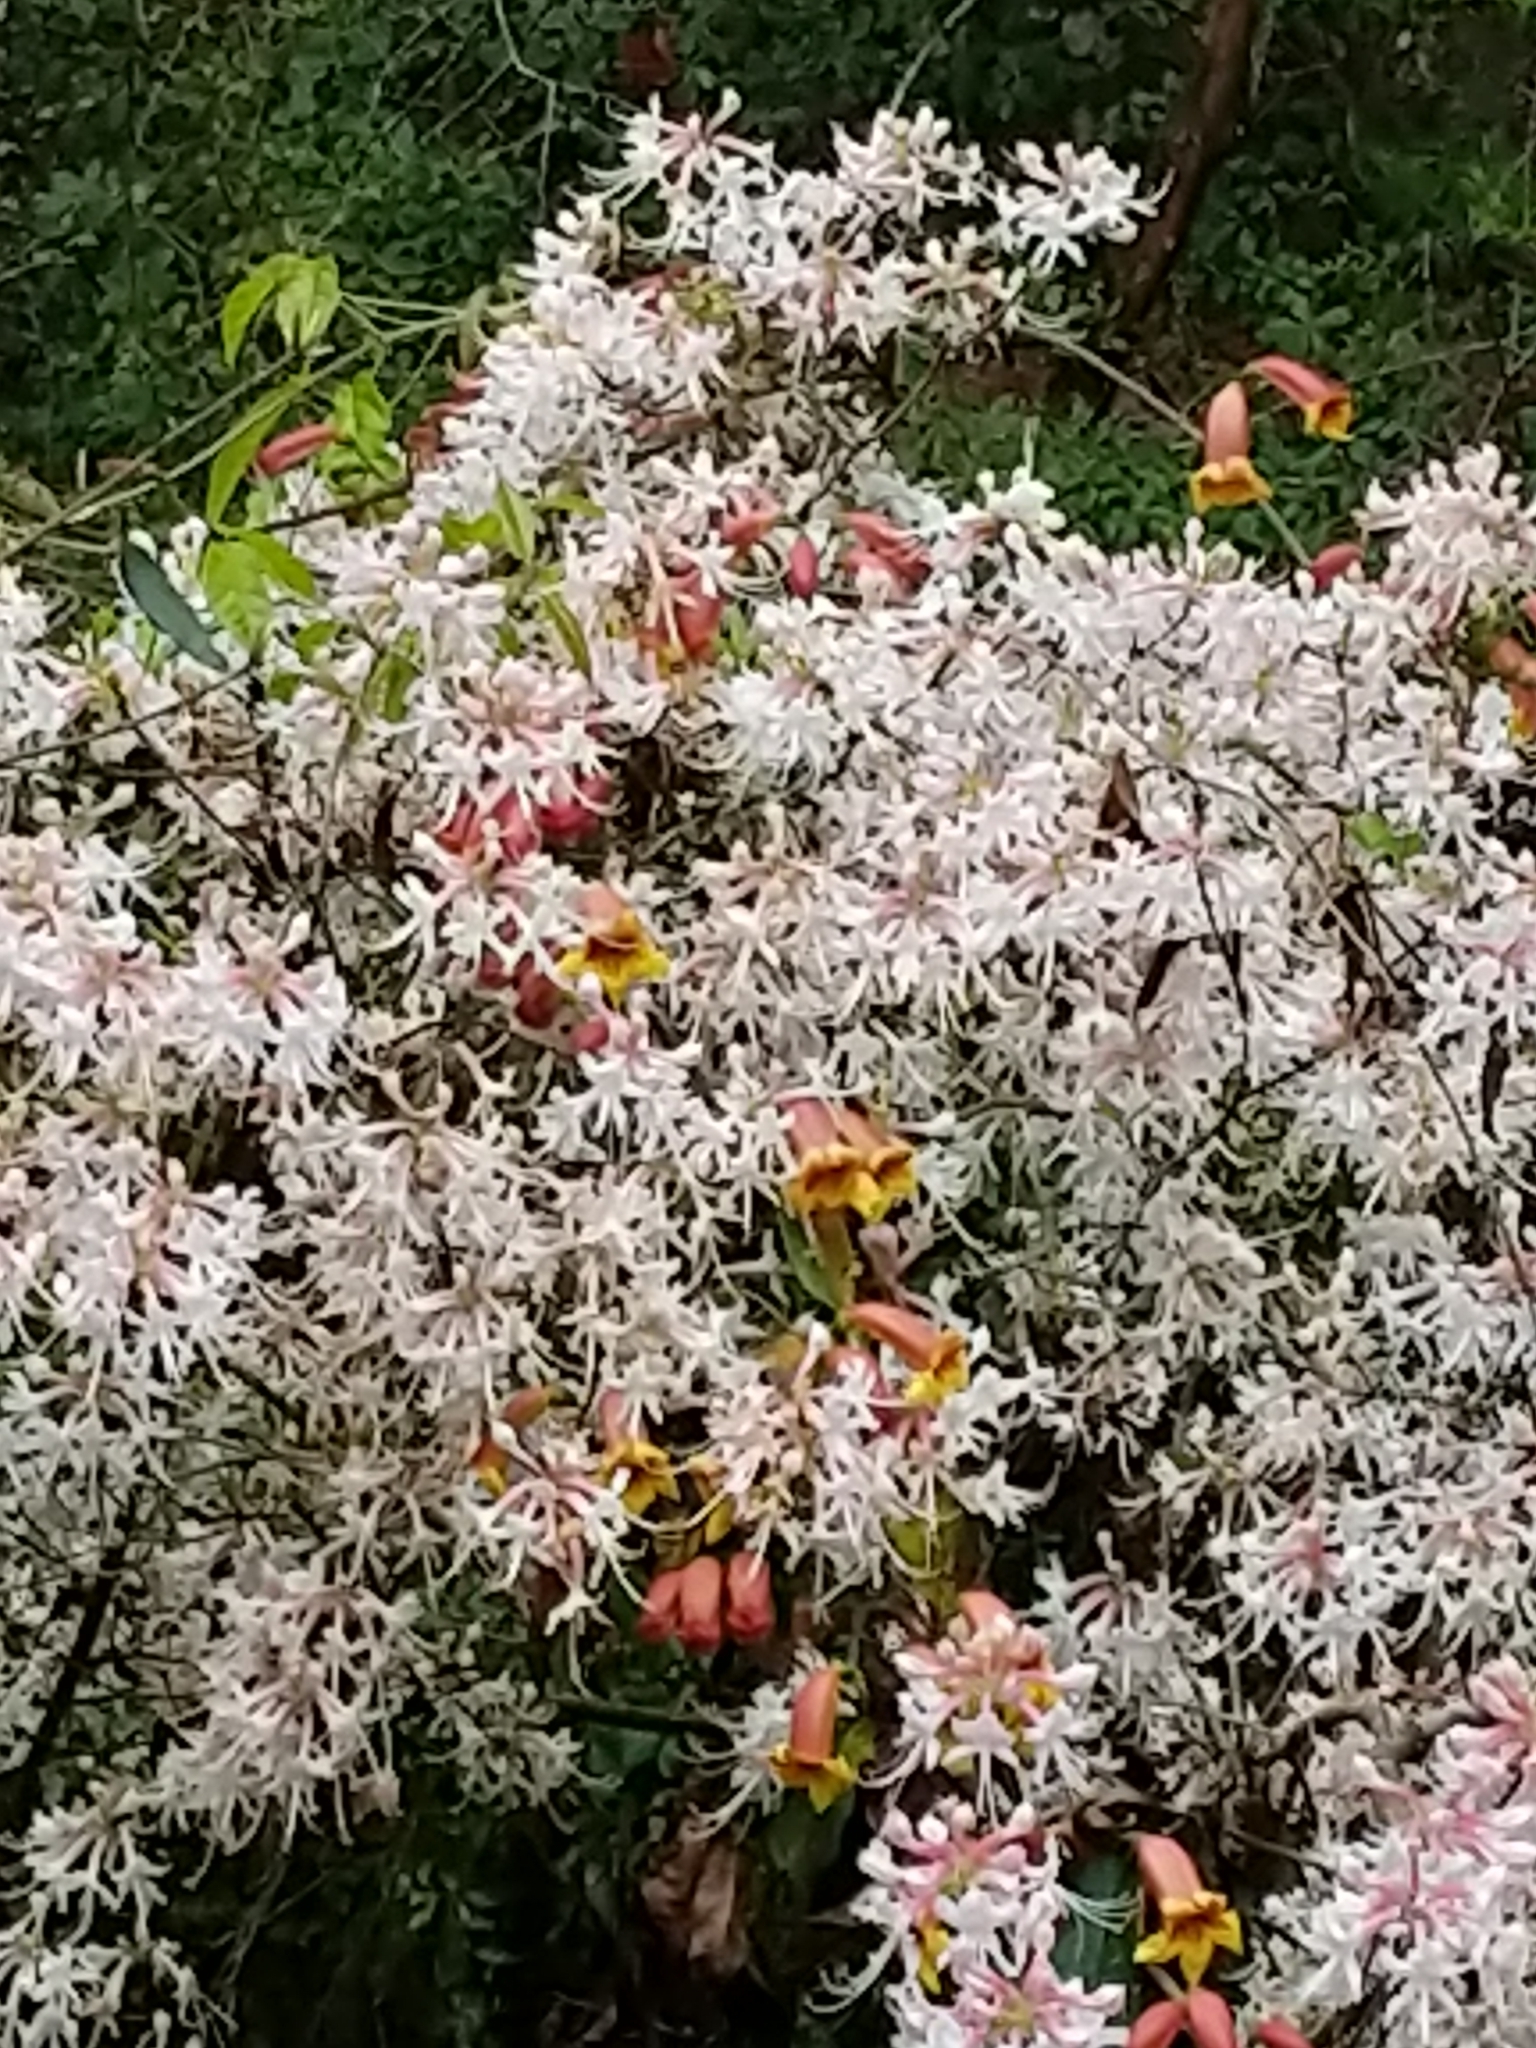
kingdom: Plantae
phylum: Tracheophyta
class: Magnoliopsida
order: Ericales
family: Ericaceae
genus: Rhododendron
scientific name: Rhododendron canescens
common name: Mountain azalea
